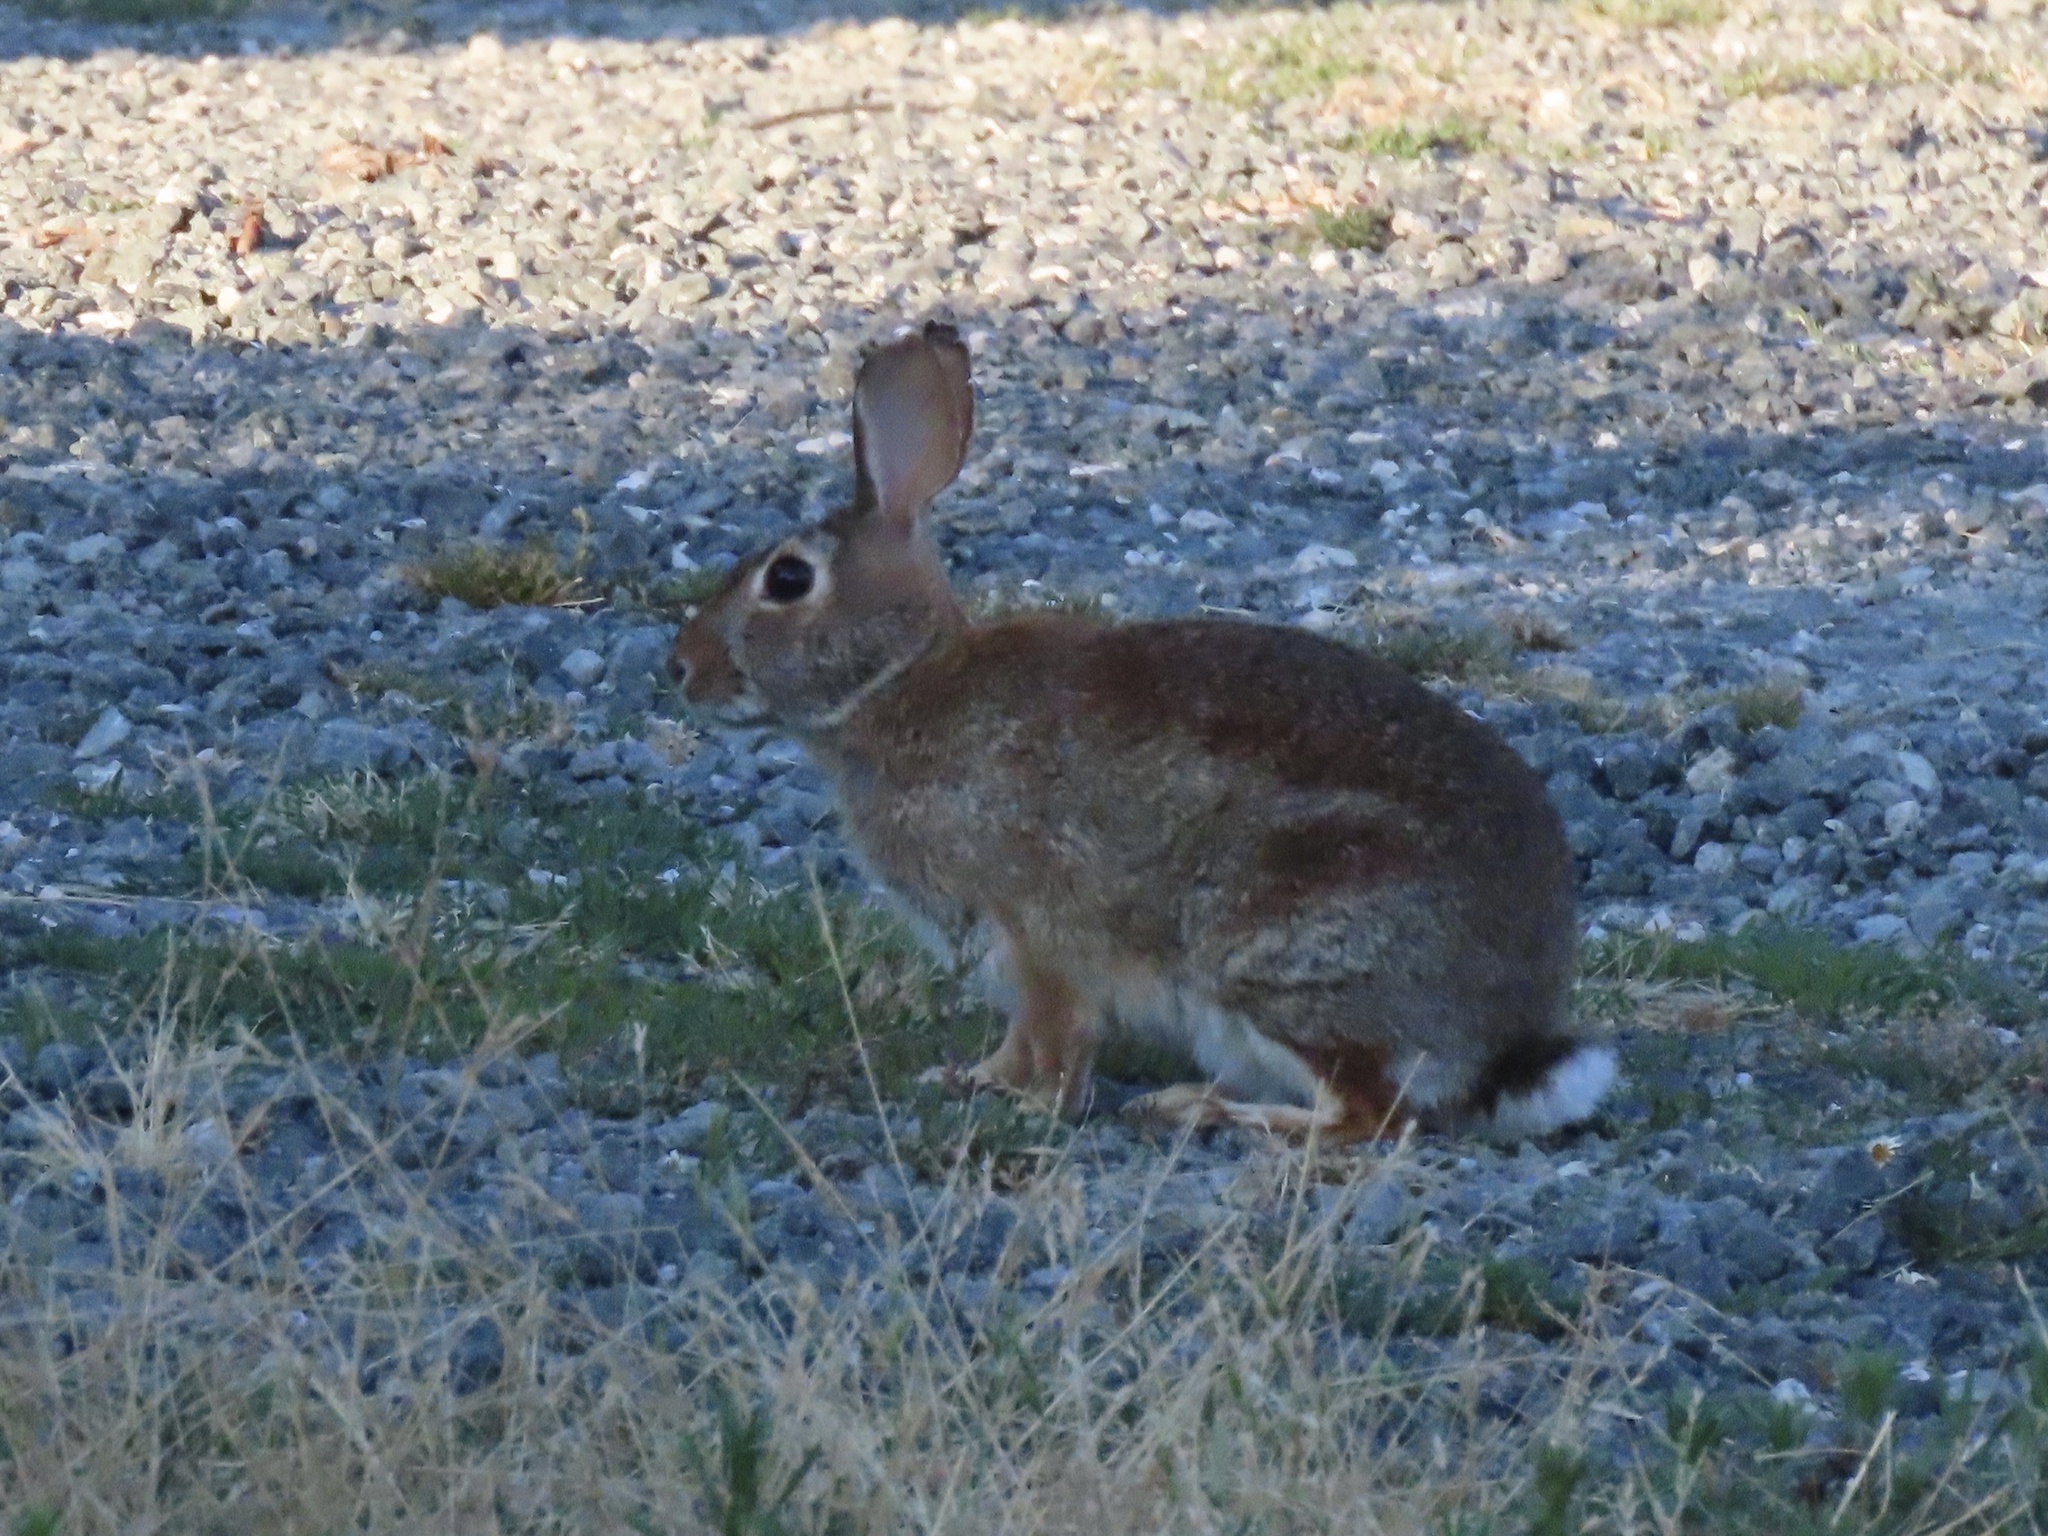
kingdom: Animalia
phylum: Chordata
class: Mammalia
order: Lagomorpha
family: Leporidae
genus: Sylvilagus
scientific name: Sylvilagus floridanus
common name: Eastern cottontail
